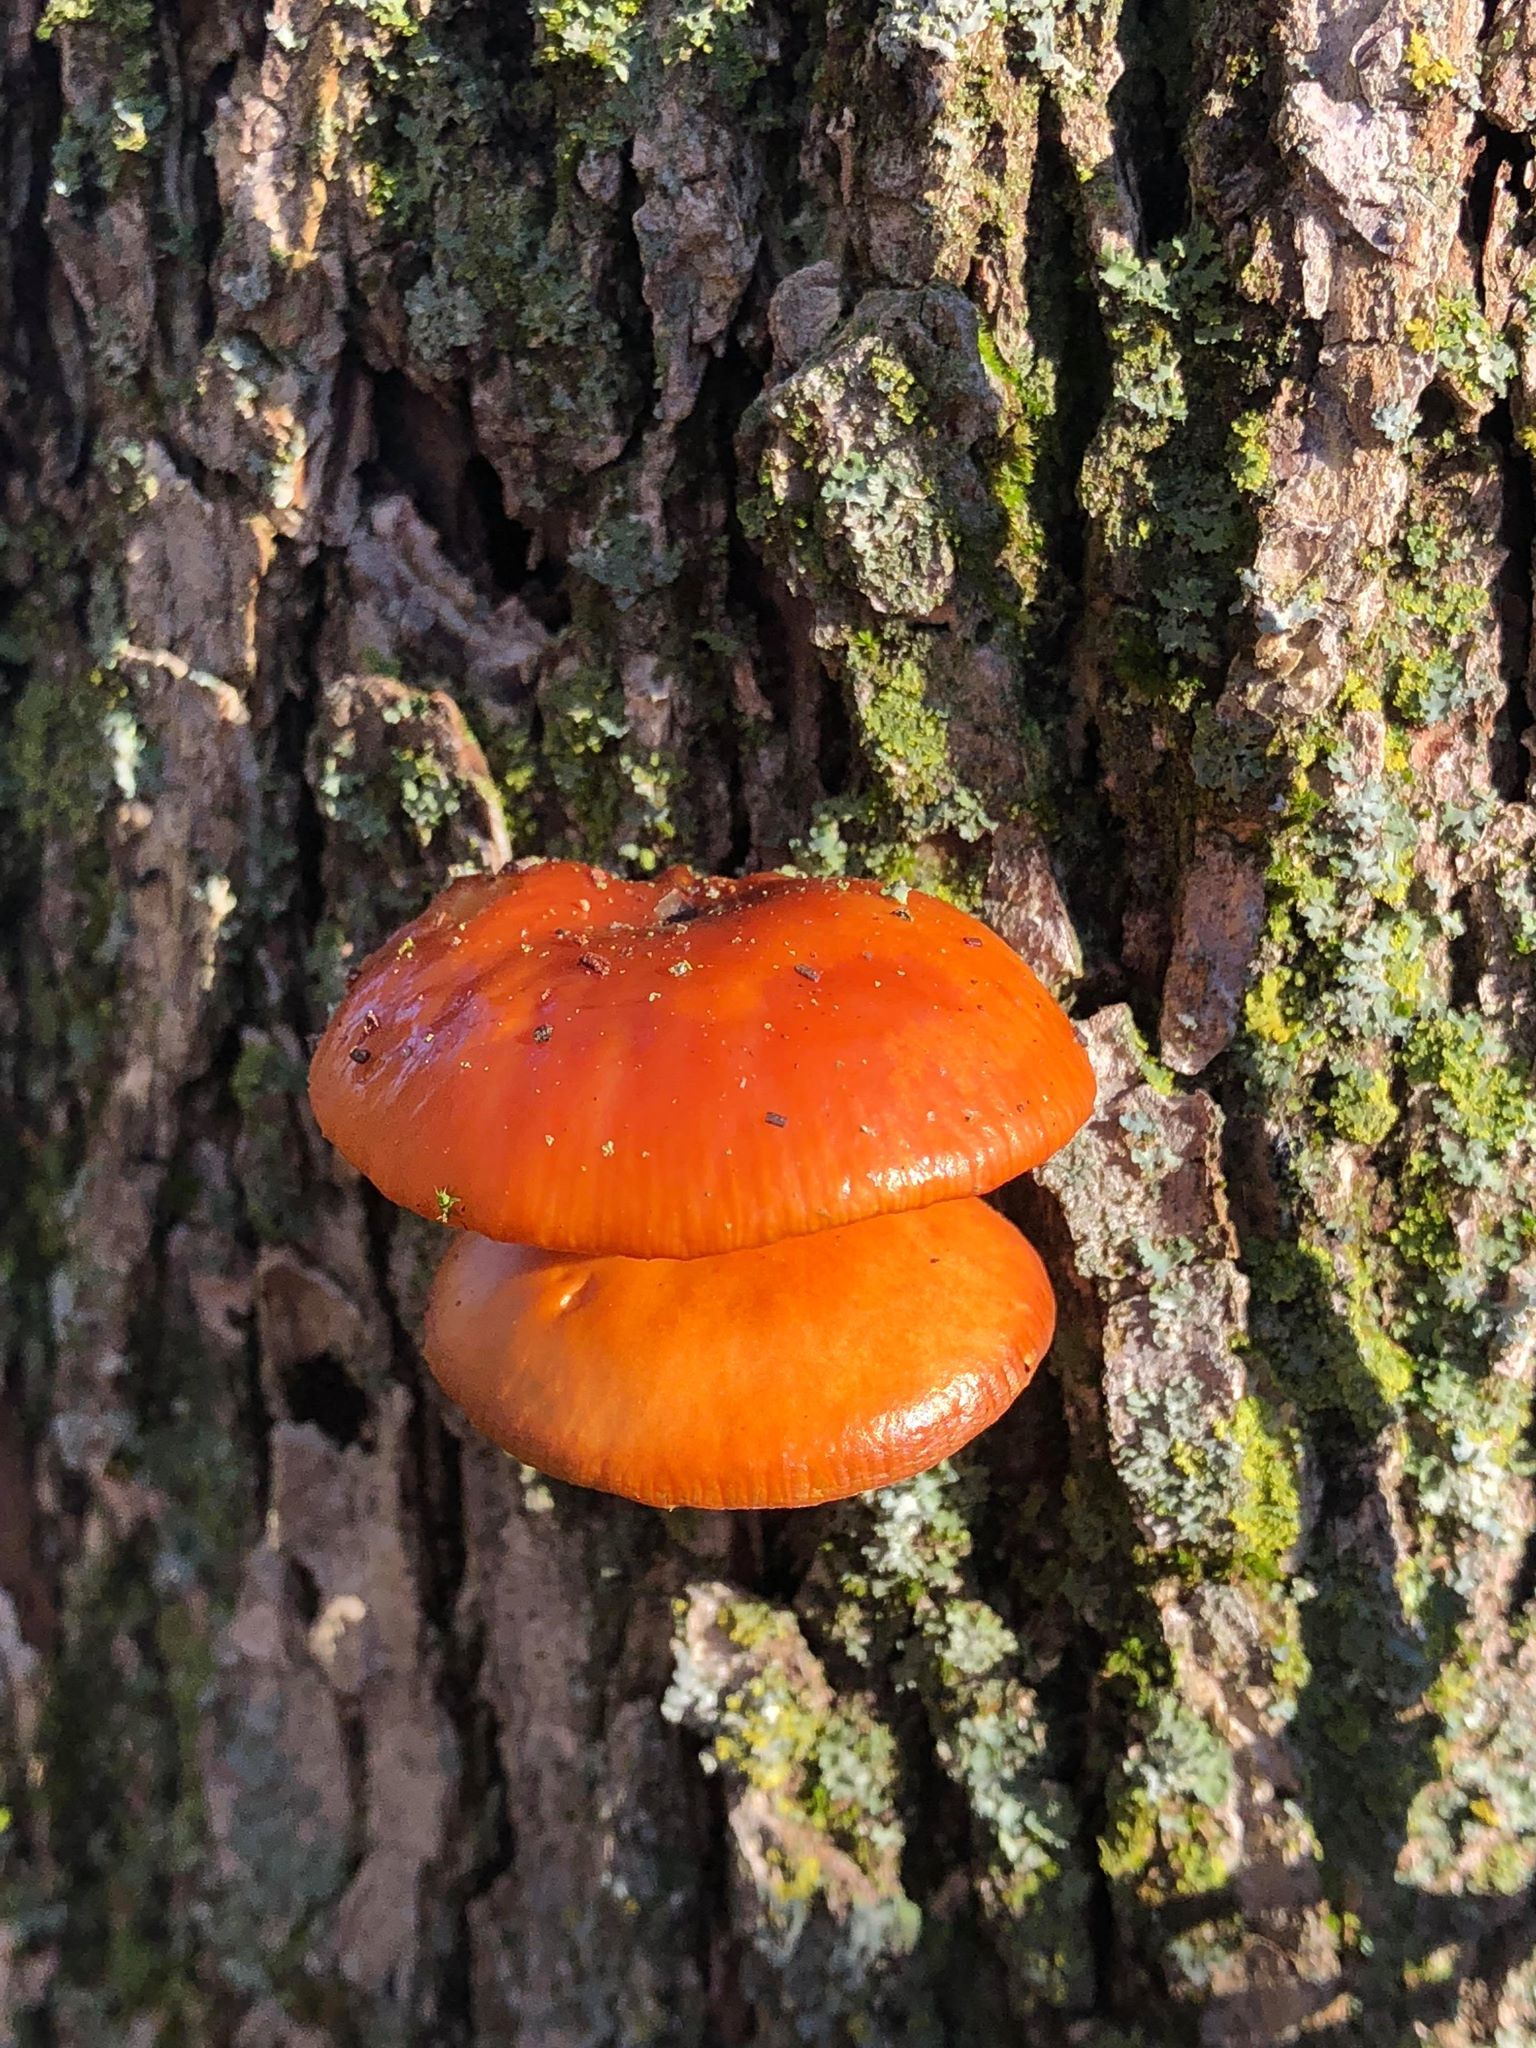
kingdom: Fungi
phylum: Basidiomycota
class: Agaricomycetes
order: Agaricales
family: Physalacriaceae
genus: Flammulina
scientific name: Flammulina velutipes
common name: Velvet shank
